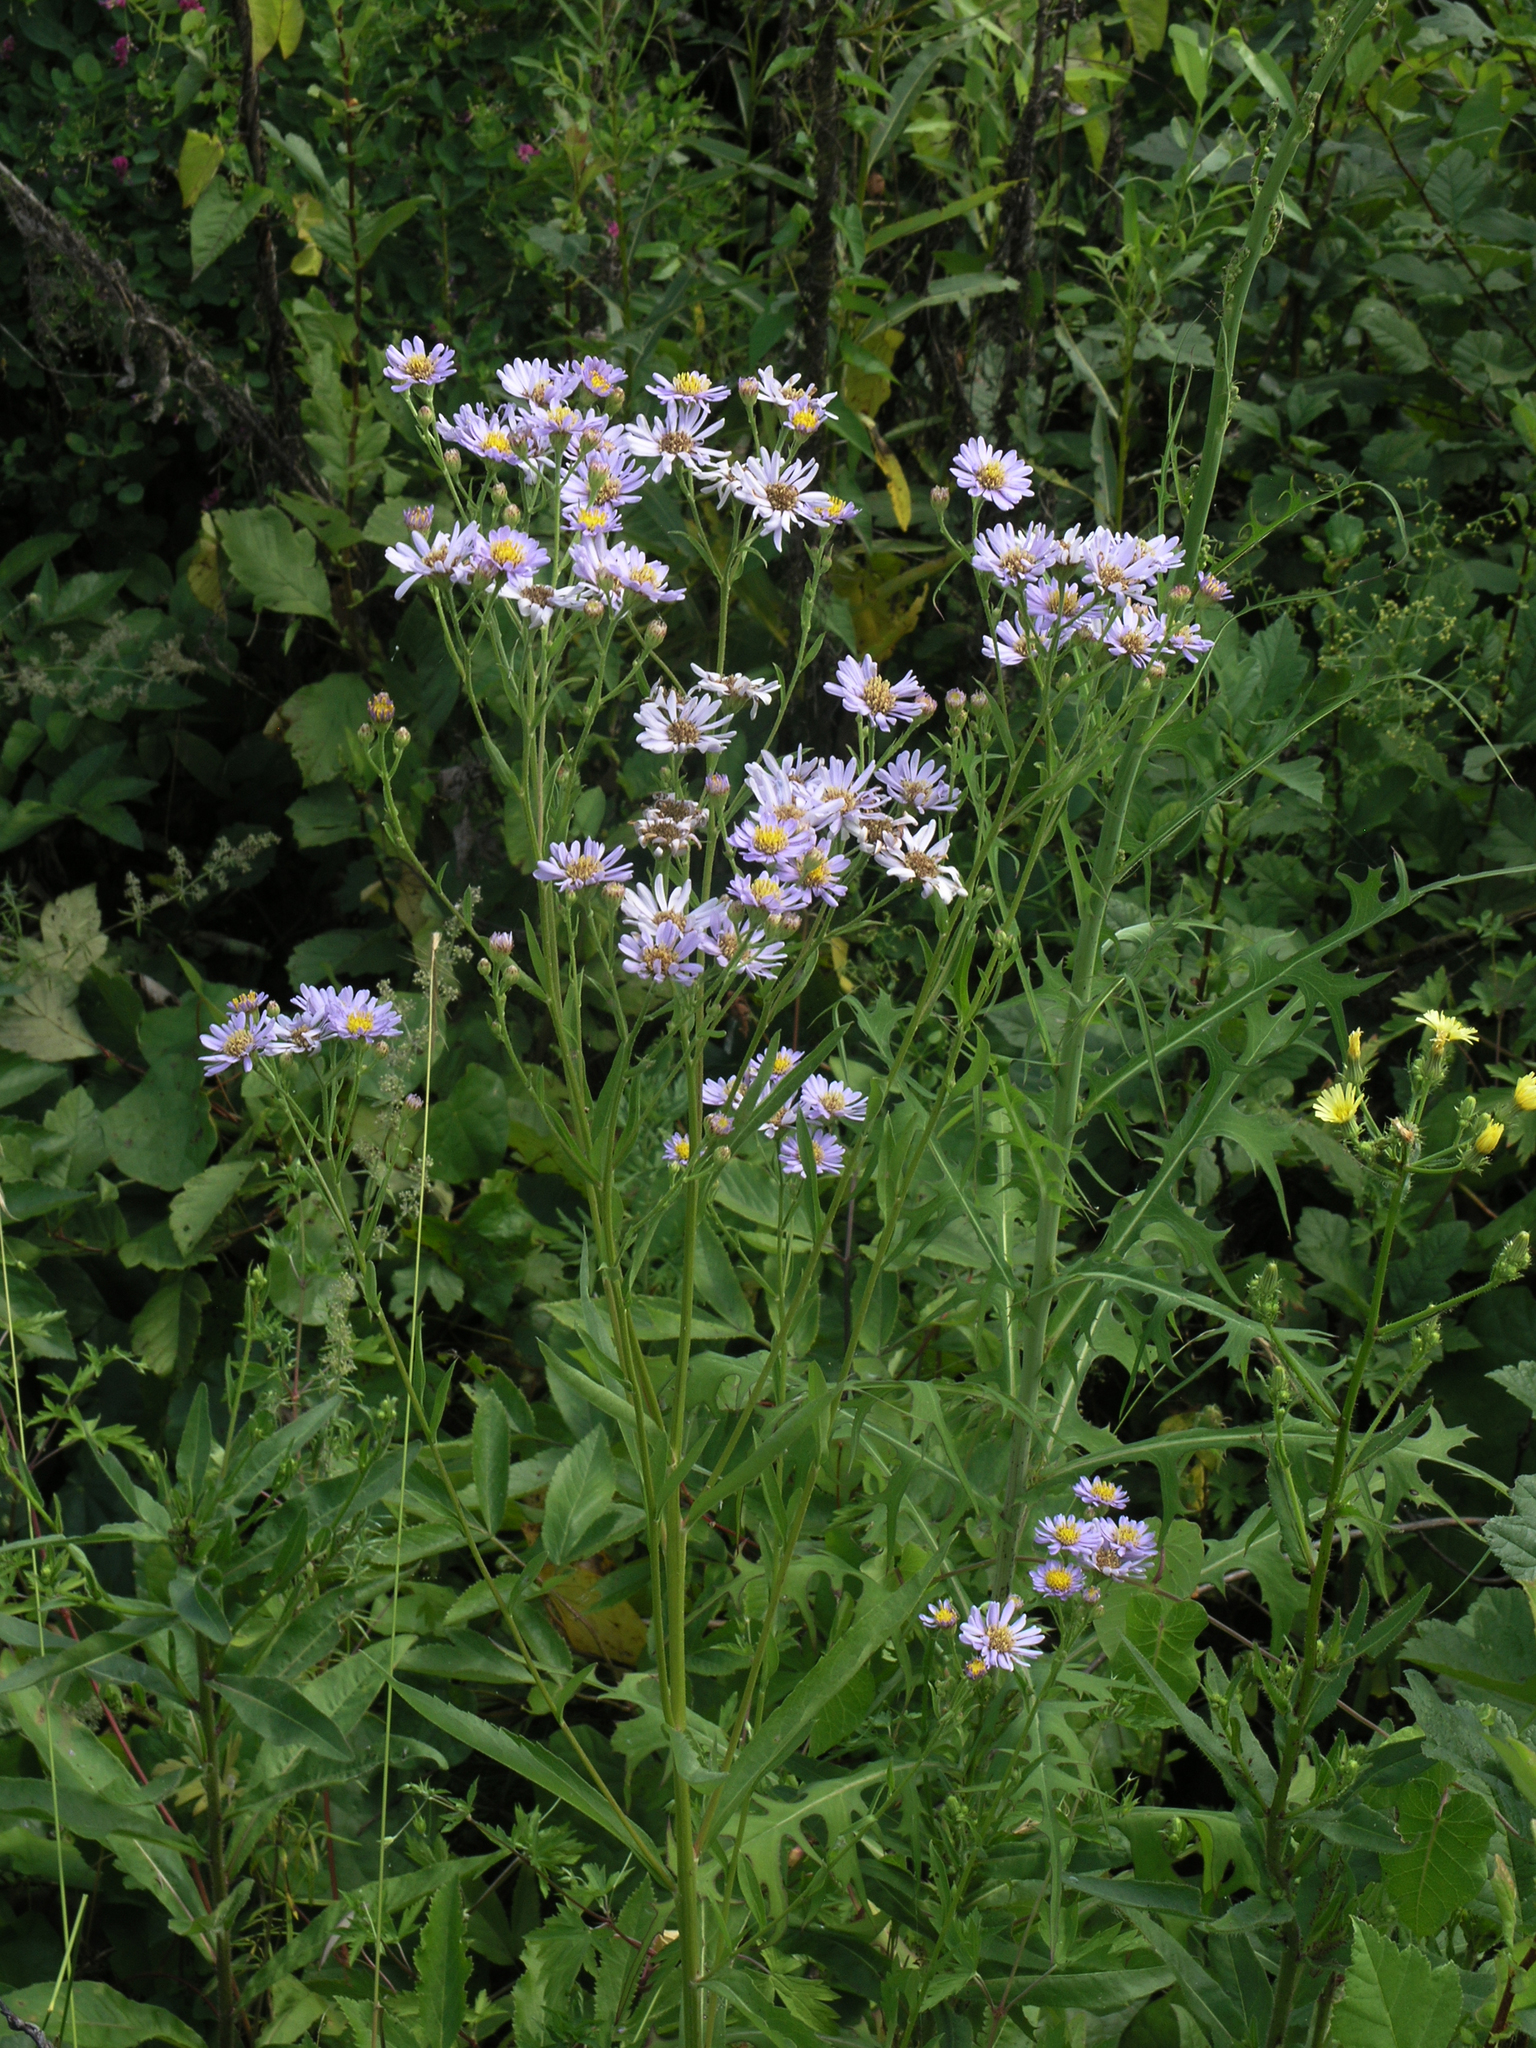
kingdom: Plantae
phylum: Tracheophyta
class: Magnoliopsida
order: Asterales
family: Asteraceae
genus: Aster
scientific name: Aster tataricus
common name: Tatarian aster
